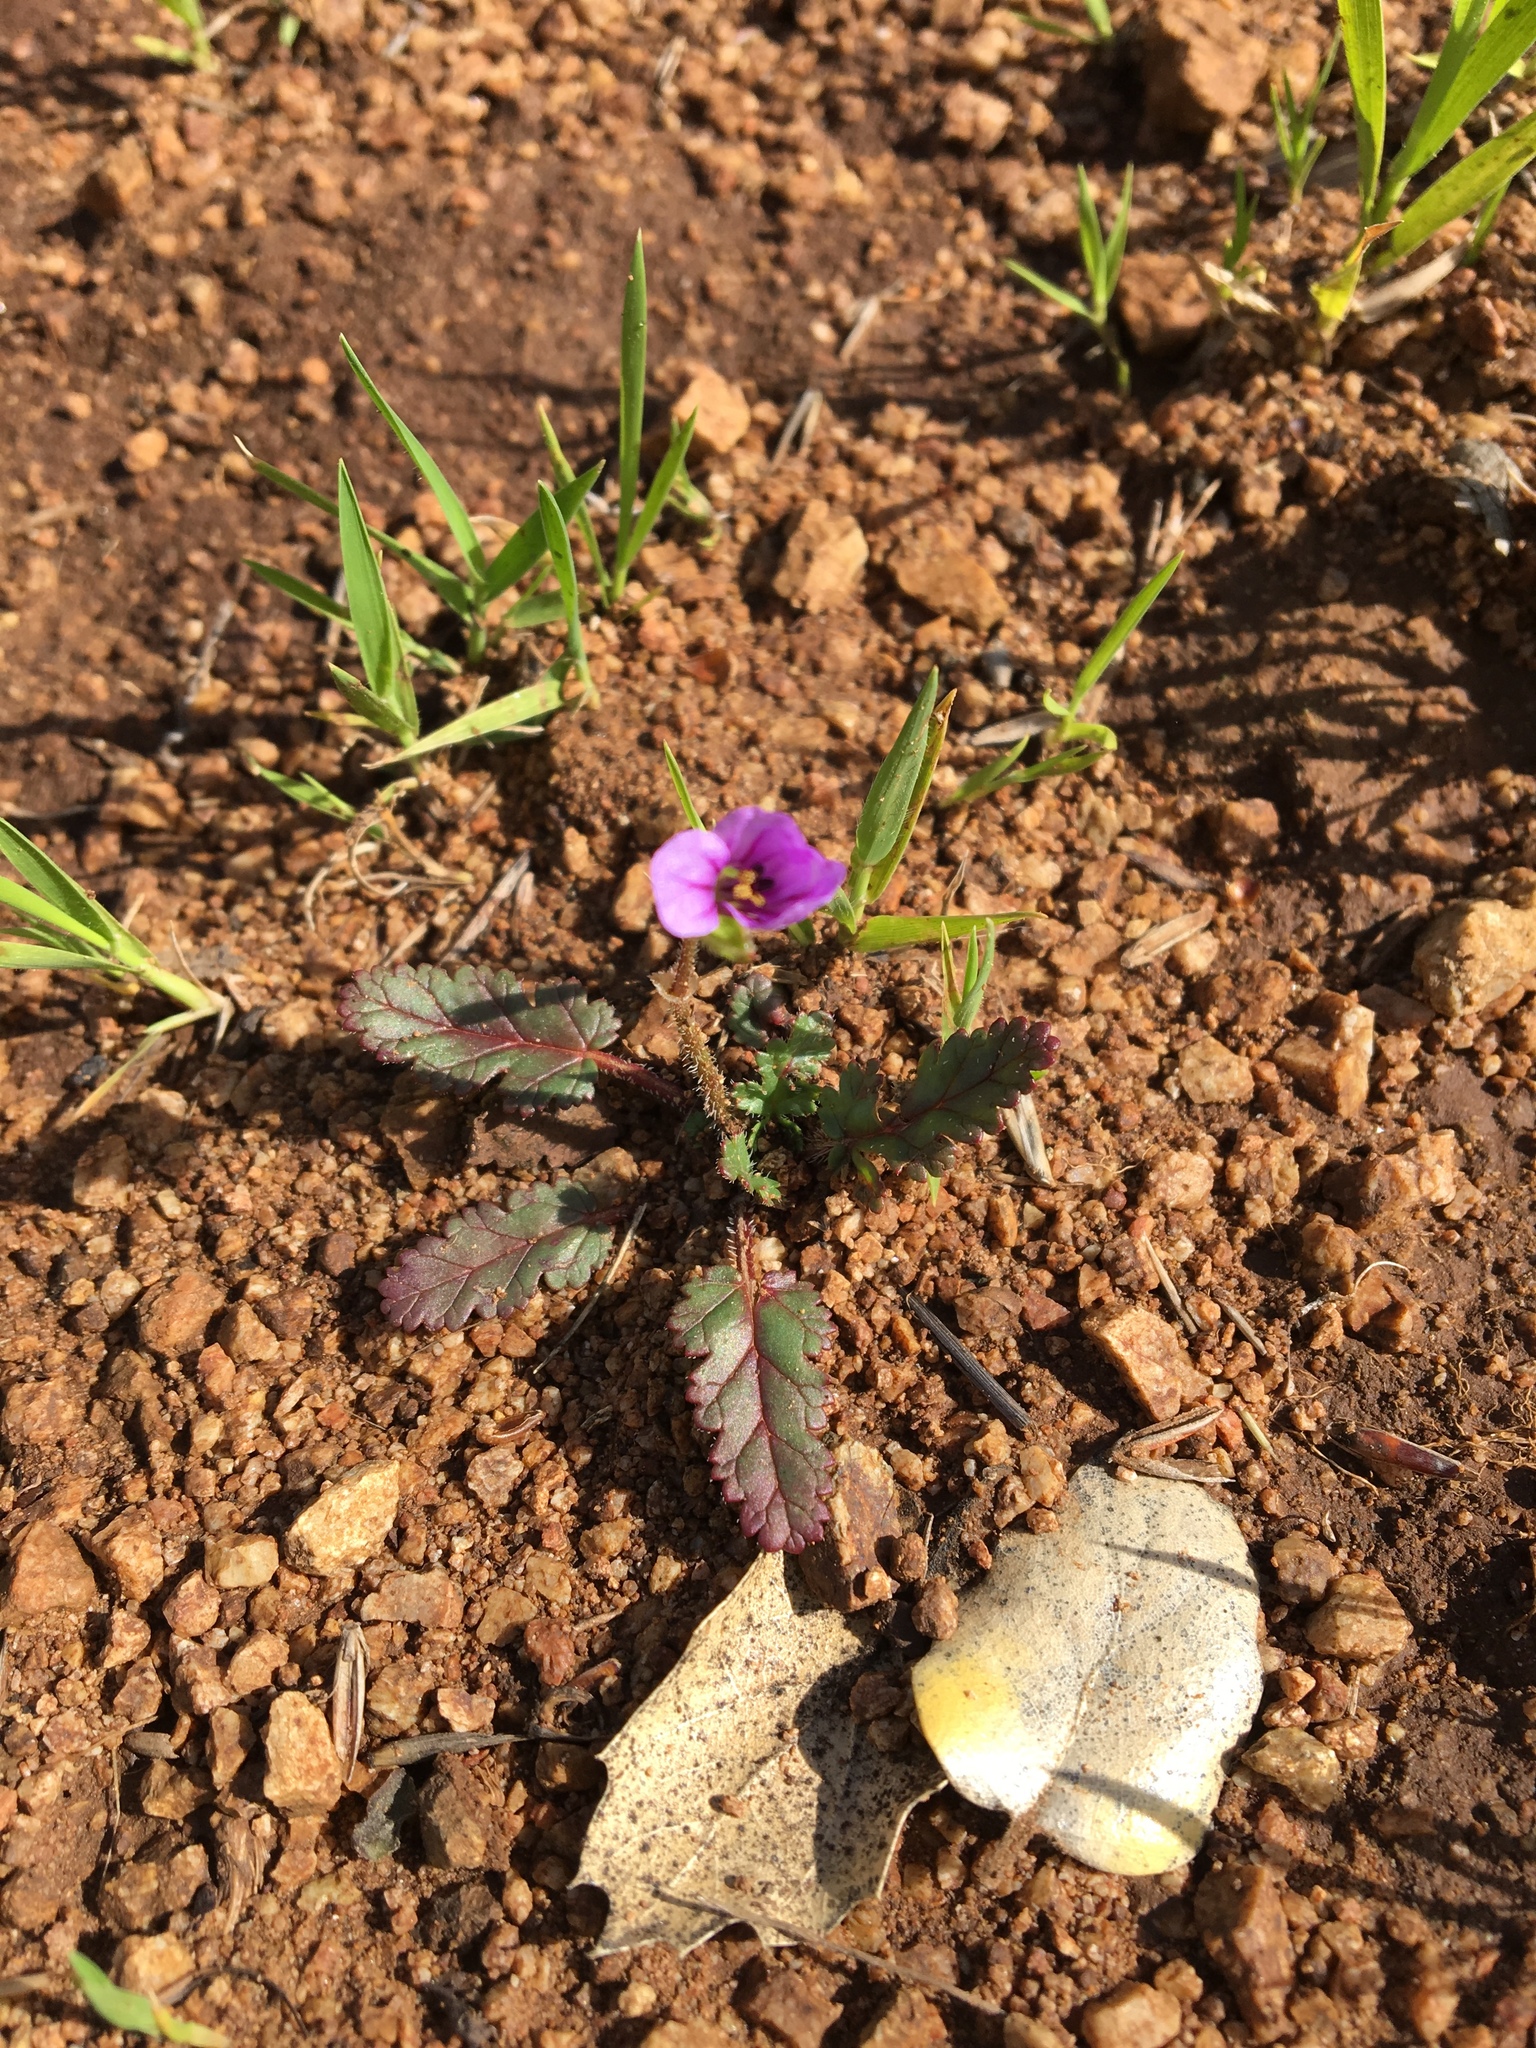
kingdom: Plantae
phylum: Tracheophyta
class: Magnoliopsida
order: Geraniales
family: Geraniaceae
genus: Erodium
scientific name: Erodium botrys
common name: Mediterranean stork's-bill
